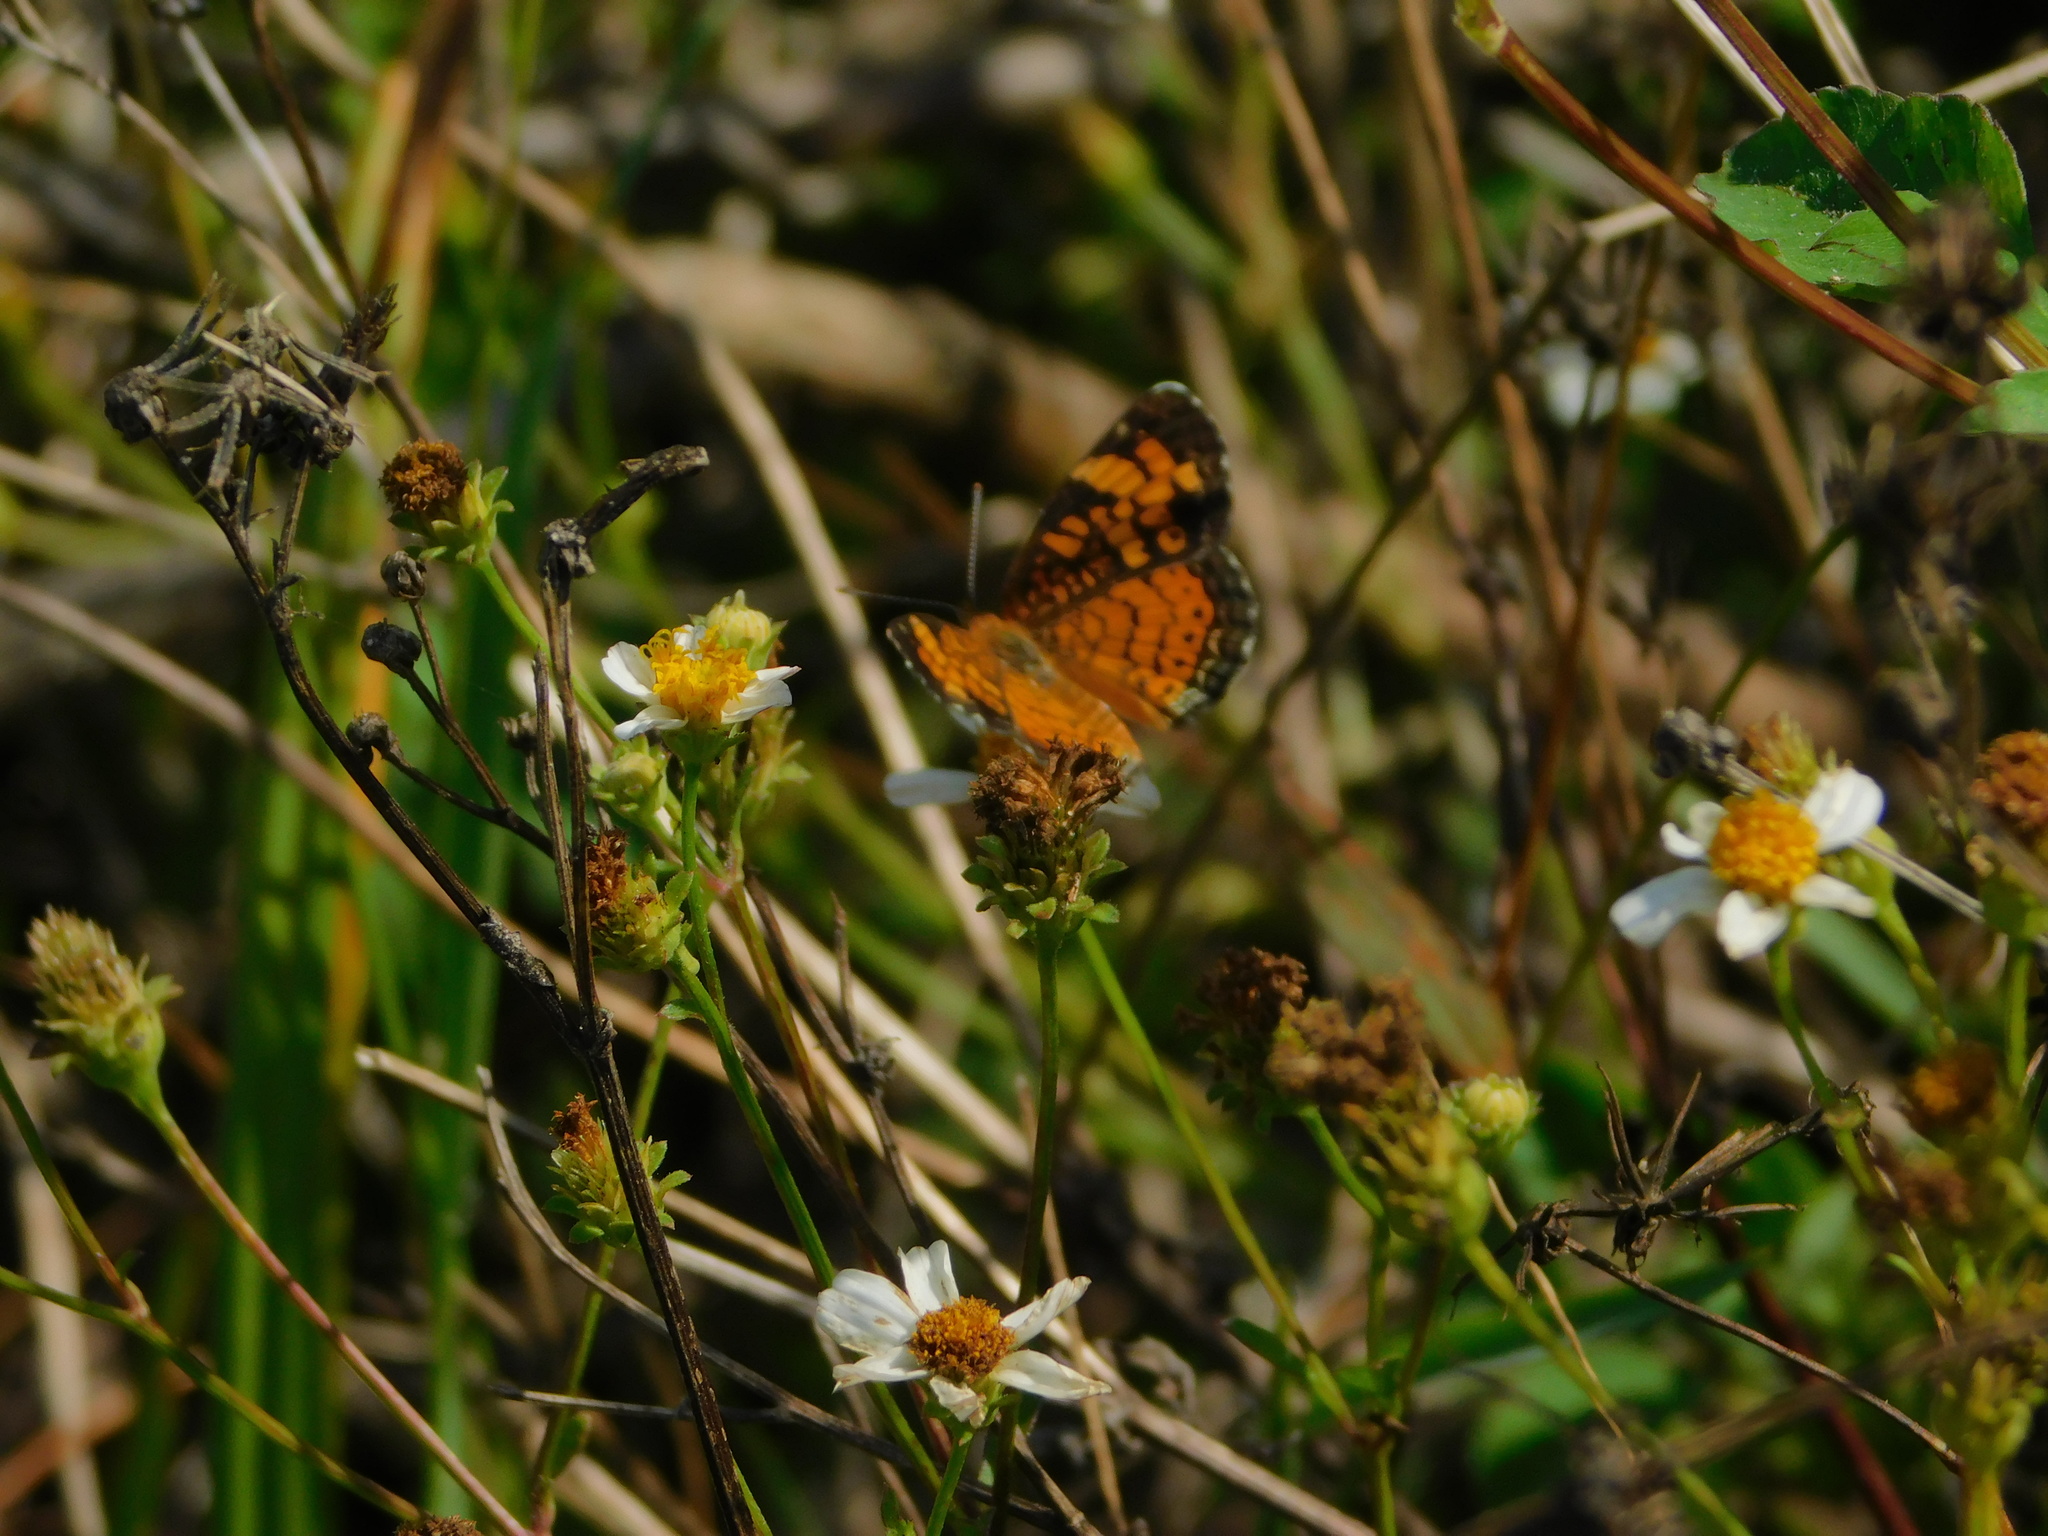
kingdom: Animalia
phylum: Arthropoda
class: Insecta
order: Lepidoptera
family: Nymphalidae
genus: Phyciodes
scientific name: Phyciodes tharos
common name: Pearl crescent
